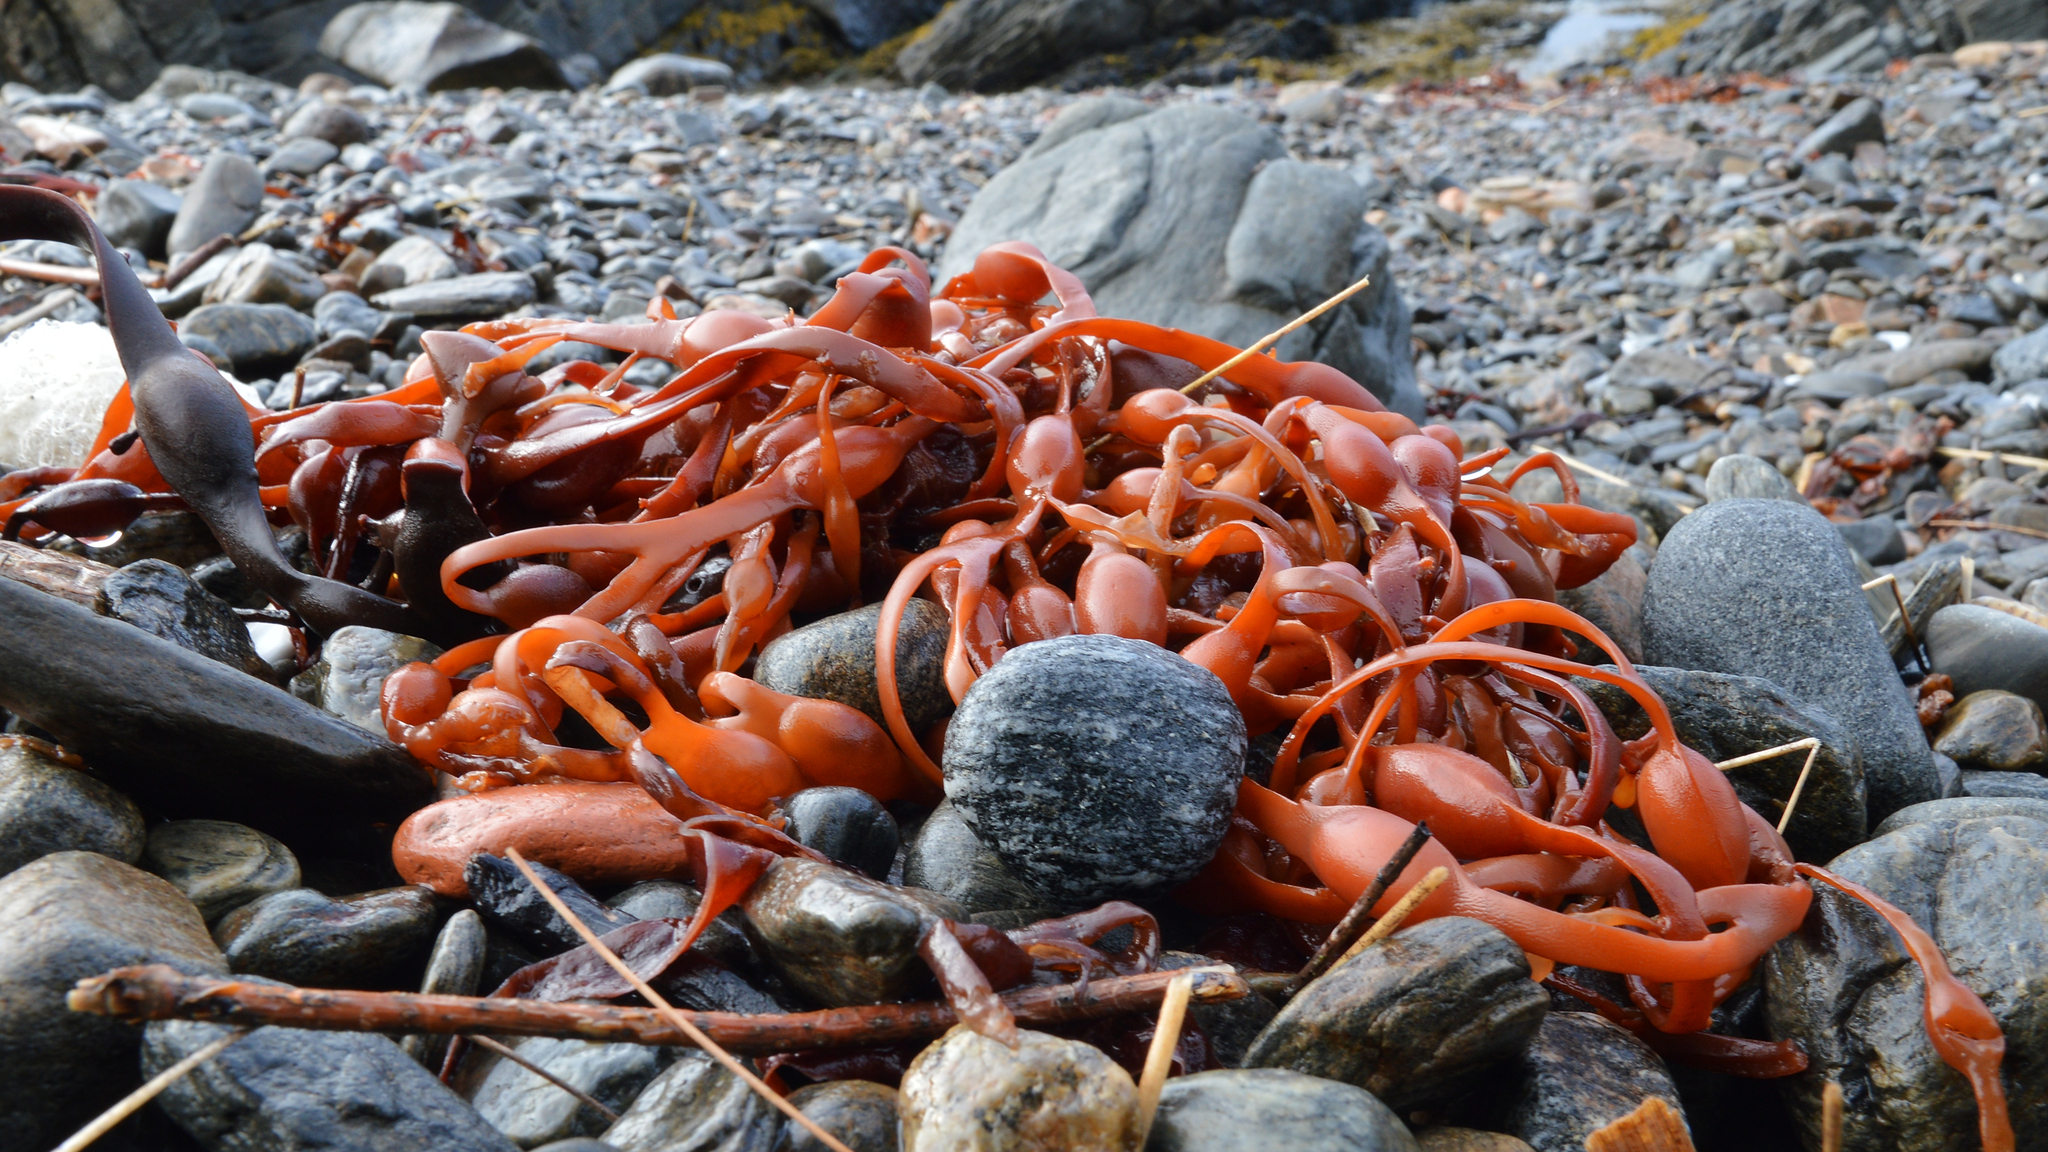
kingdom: Chromista
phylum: Ochrophyta
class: Phaeophyceae
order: Fucales
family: Fucaceae
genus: Ascophyllum
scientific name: Ascophyllum nodosum
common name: Knotted wrack
